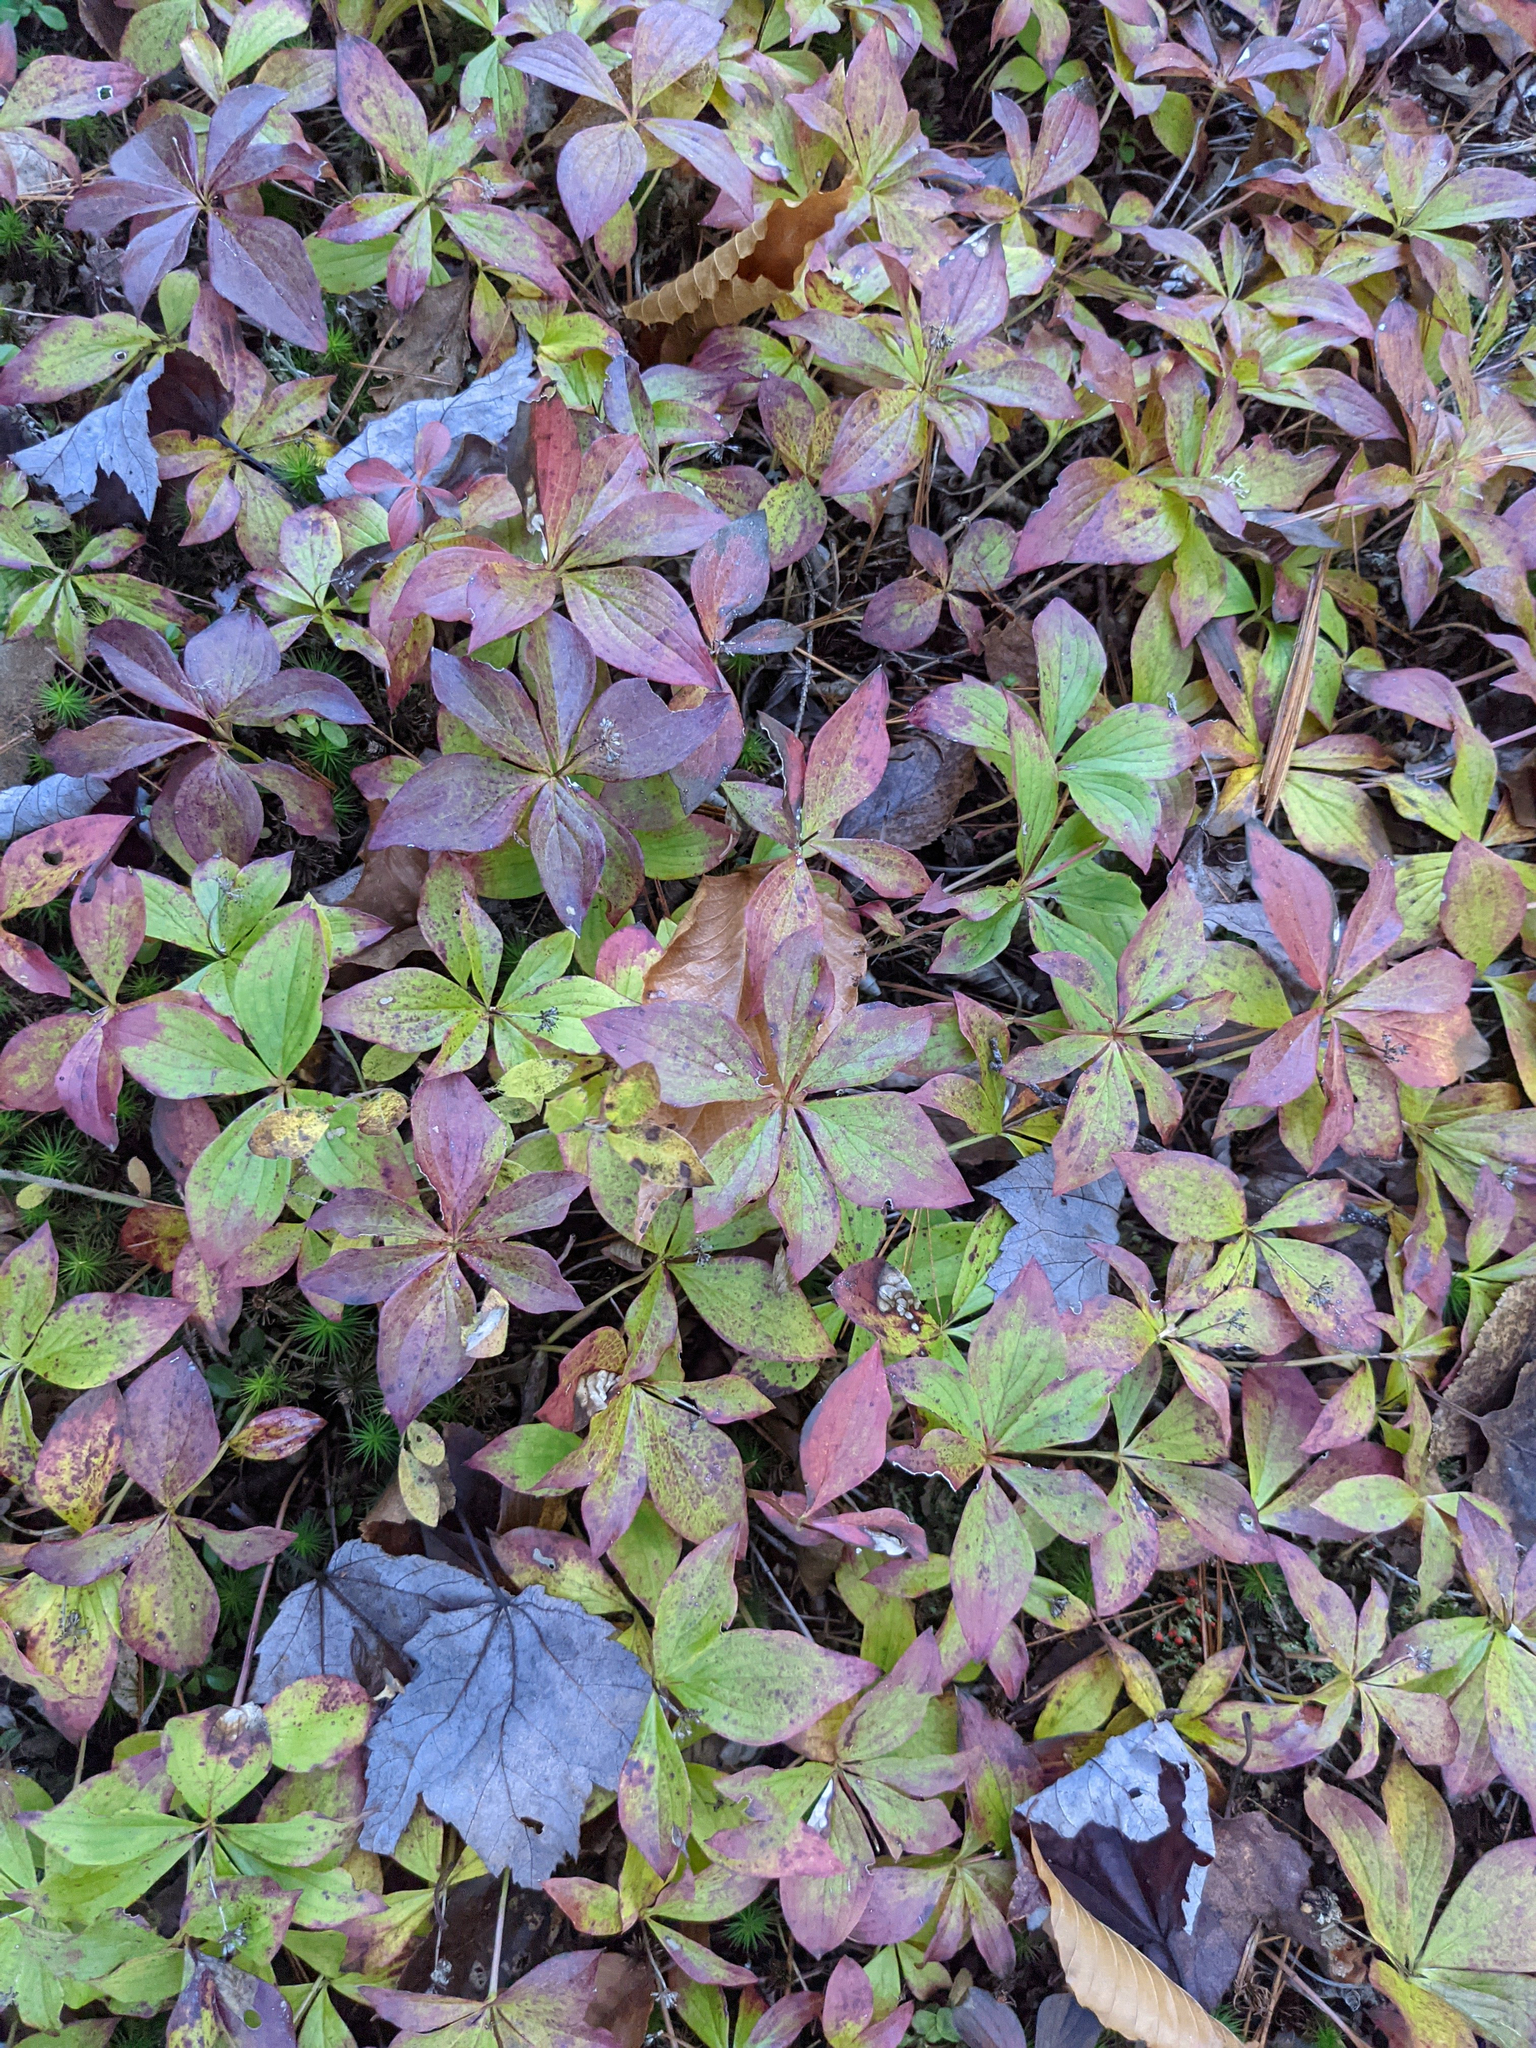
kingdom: Plantae
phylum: Tracheophyta
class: Magnoliopsida
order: Cornales
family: Cornaceae
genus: Cornus
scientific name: Cornus canadensis
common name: Creeping dogwood
